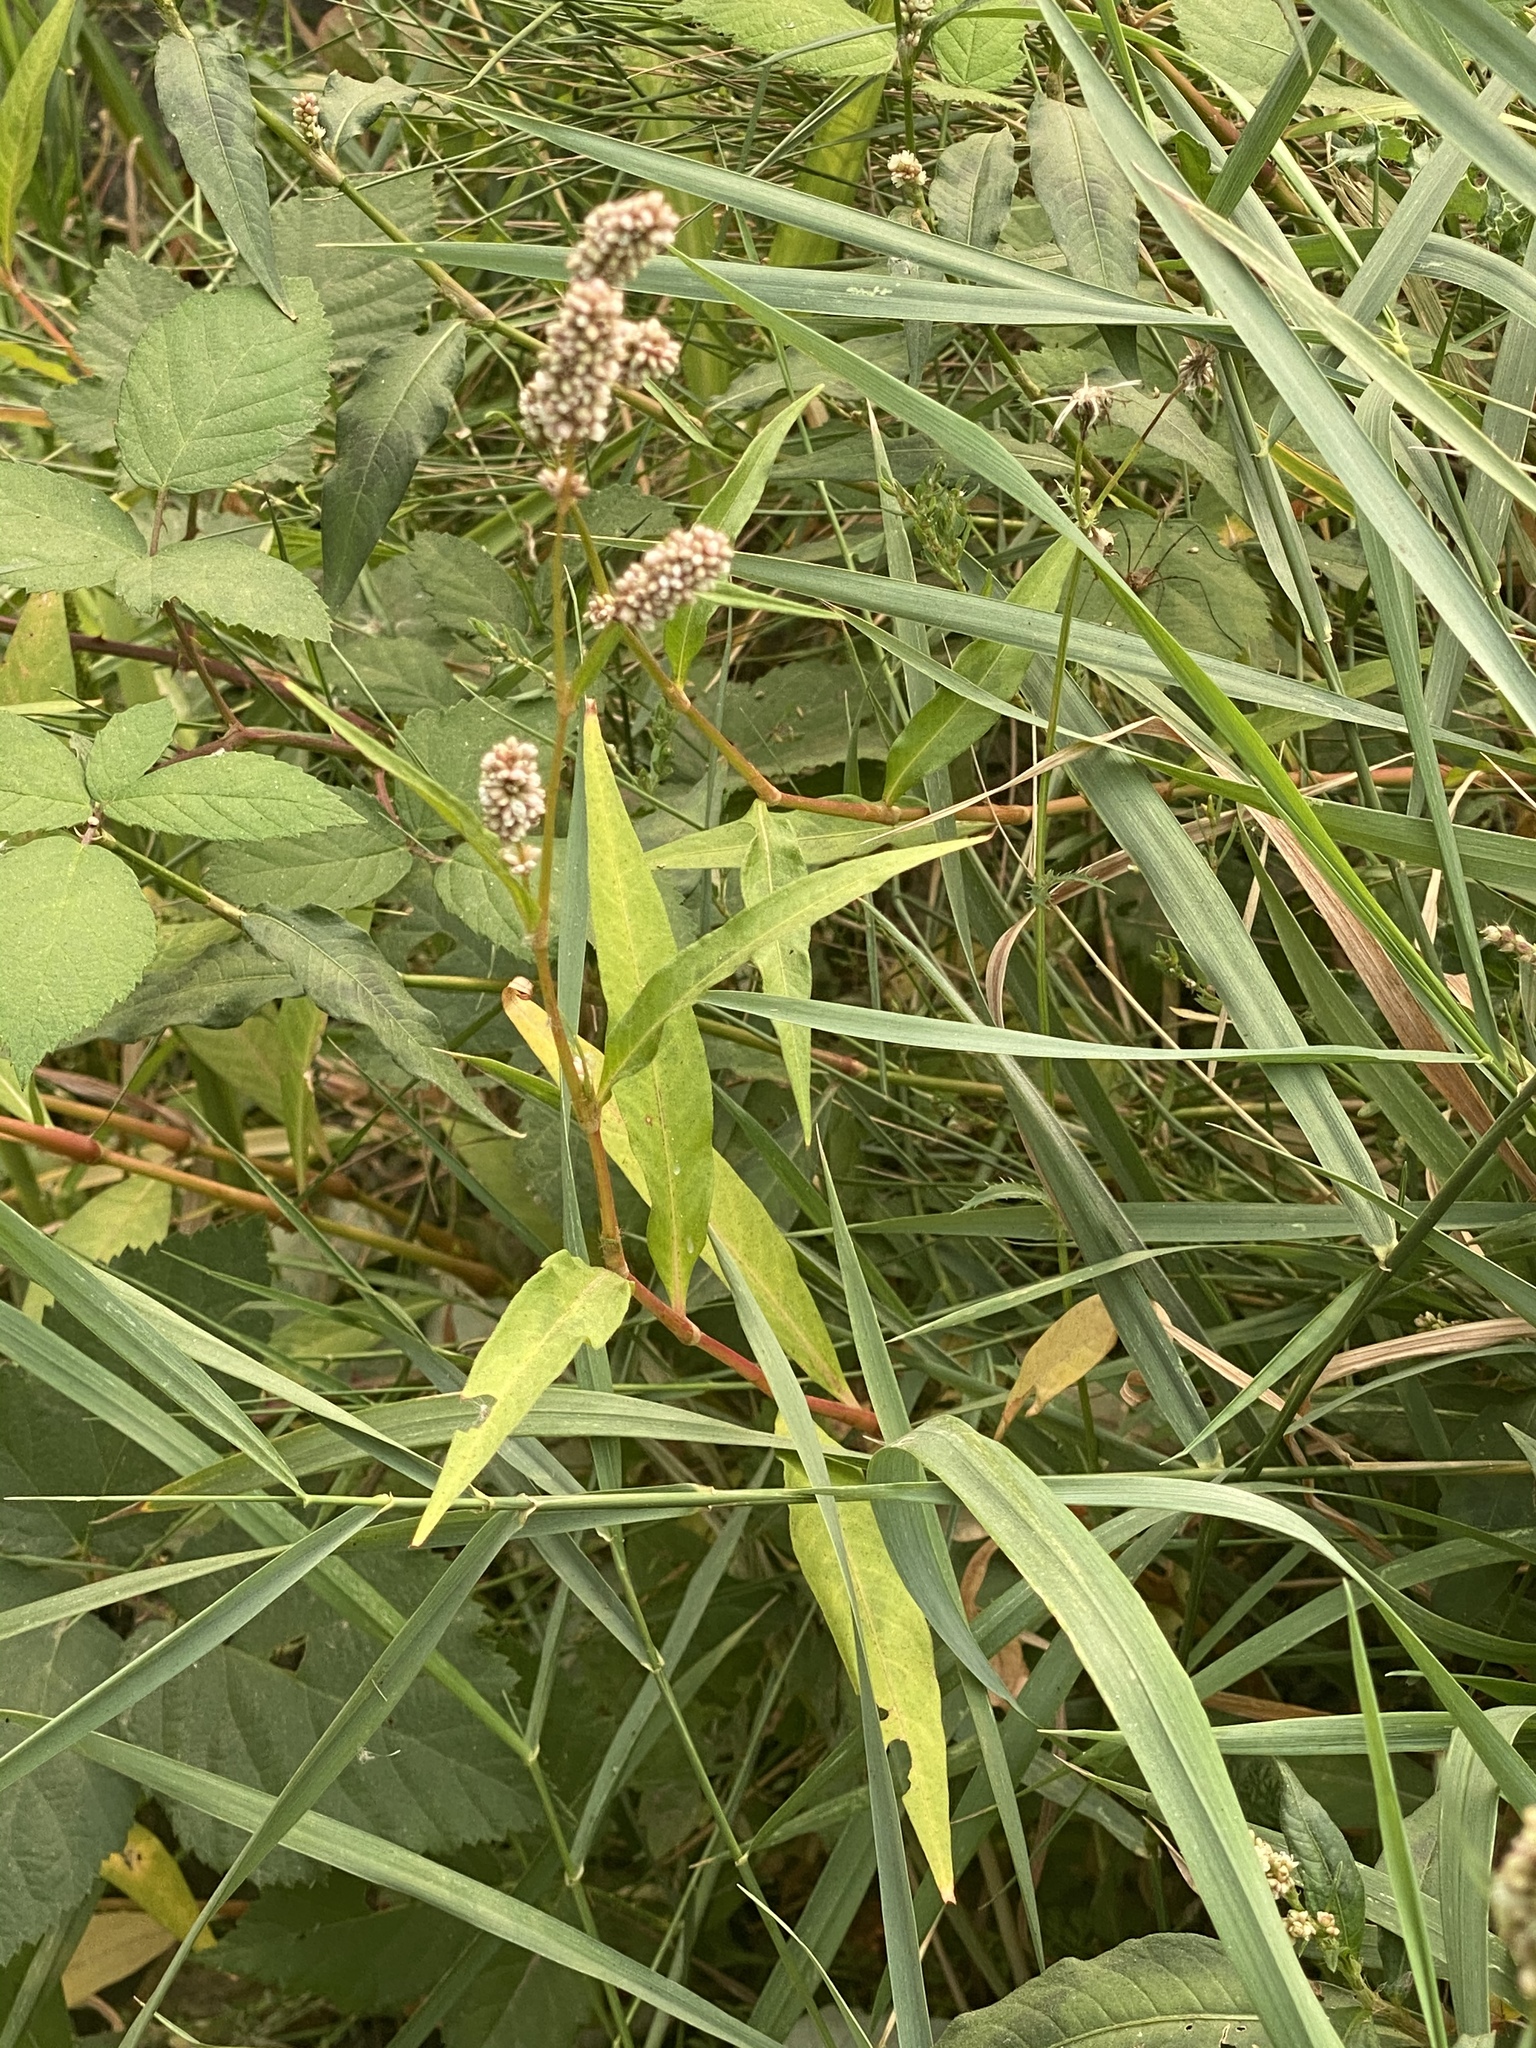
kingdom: Plantae
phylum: Tracheophyta
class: Magnoliopsida
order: Caryophyllales
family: Polygonaceae
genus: Persicaria
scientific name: Persicaria maculosa
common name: Redshank
